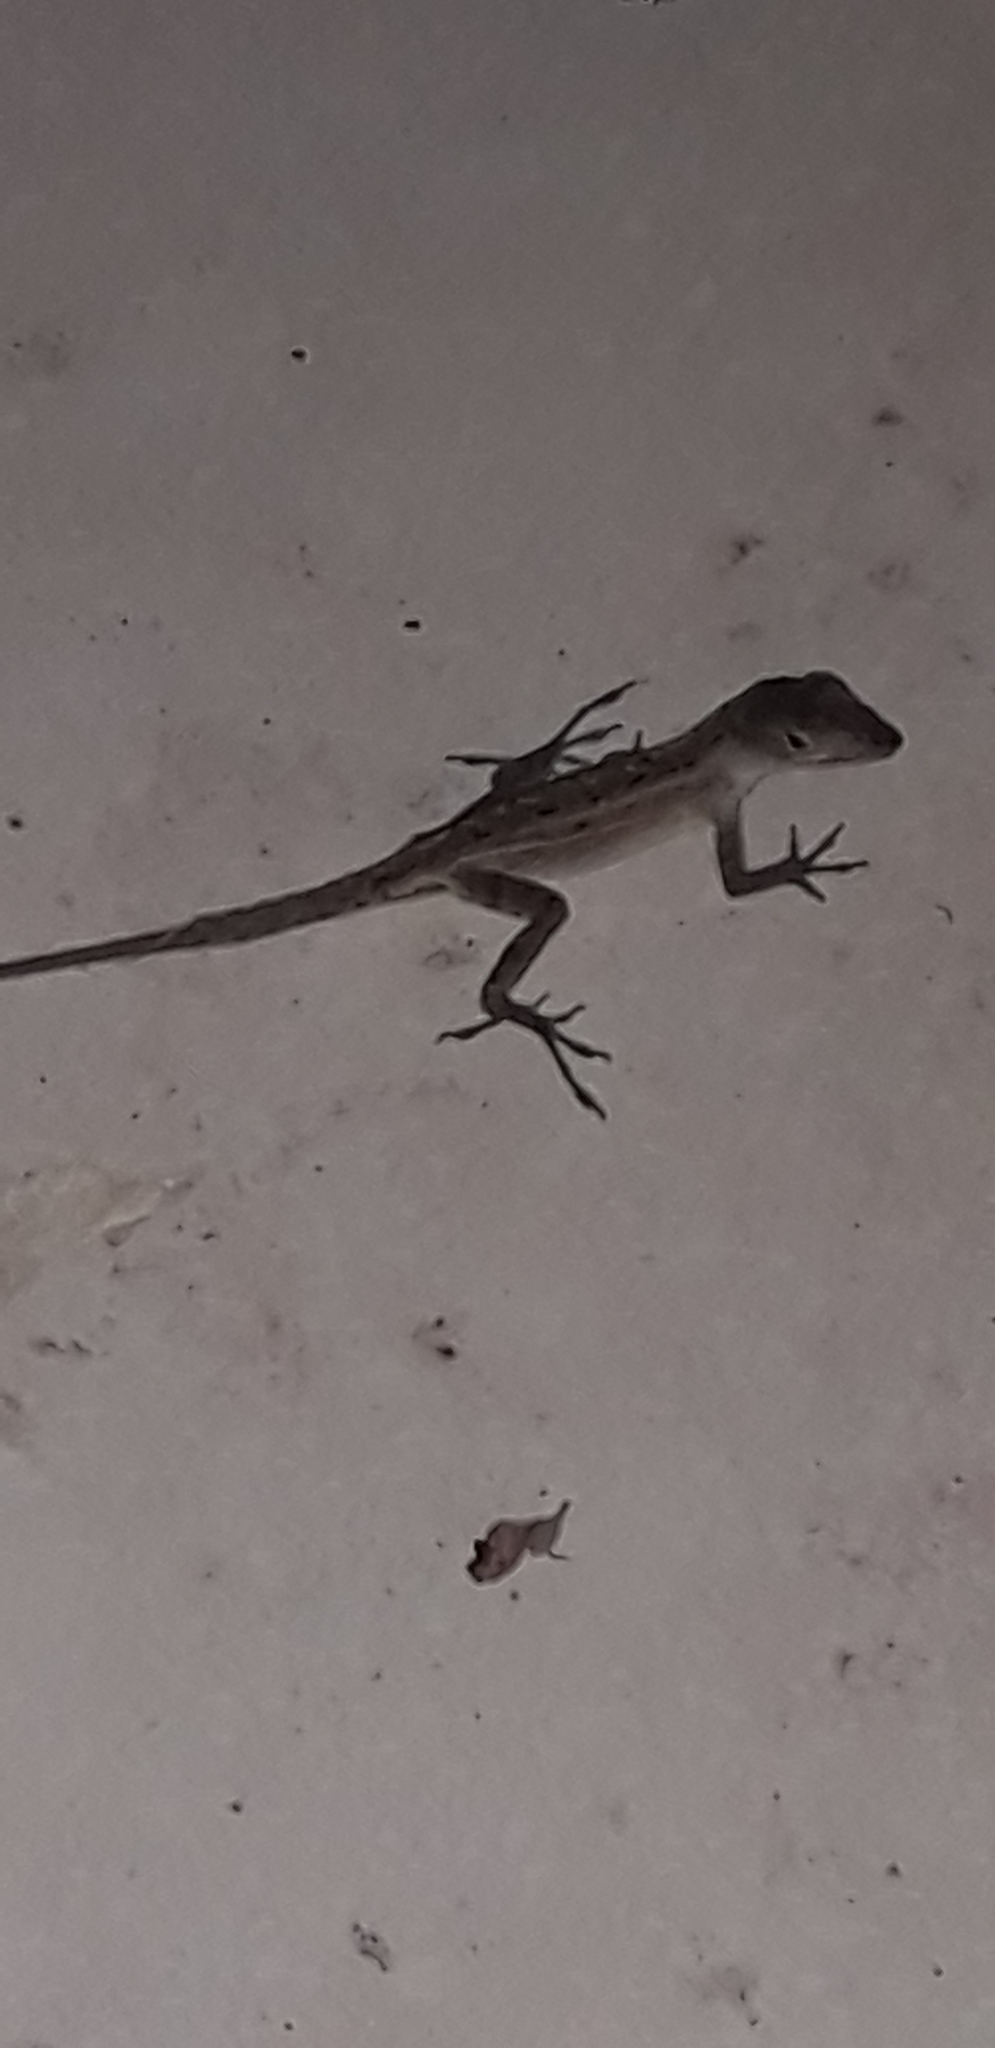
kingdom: Animalia
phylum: Chordata
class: Squamata
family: Dactyloidae
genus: Anolis
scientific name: Anolis sagrei
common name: Brown anole
